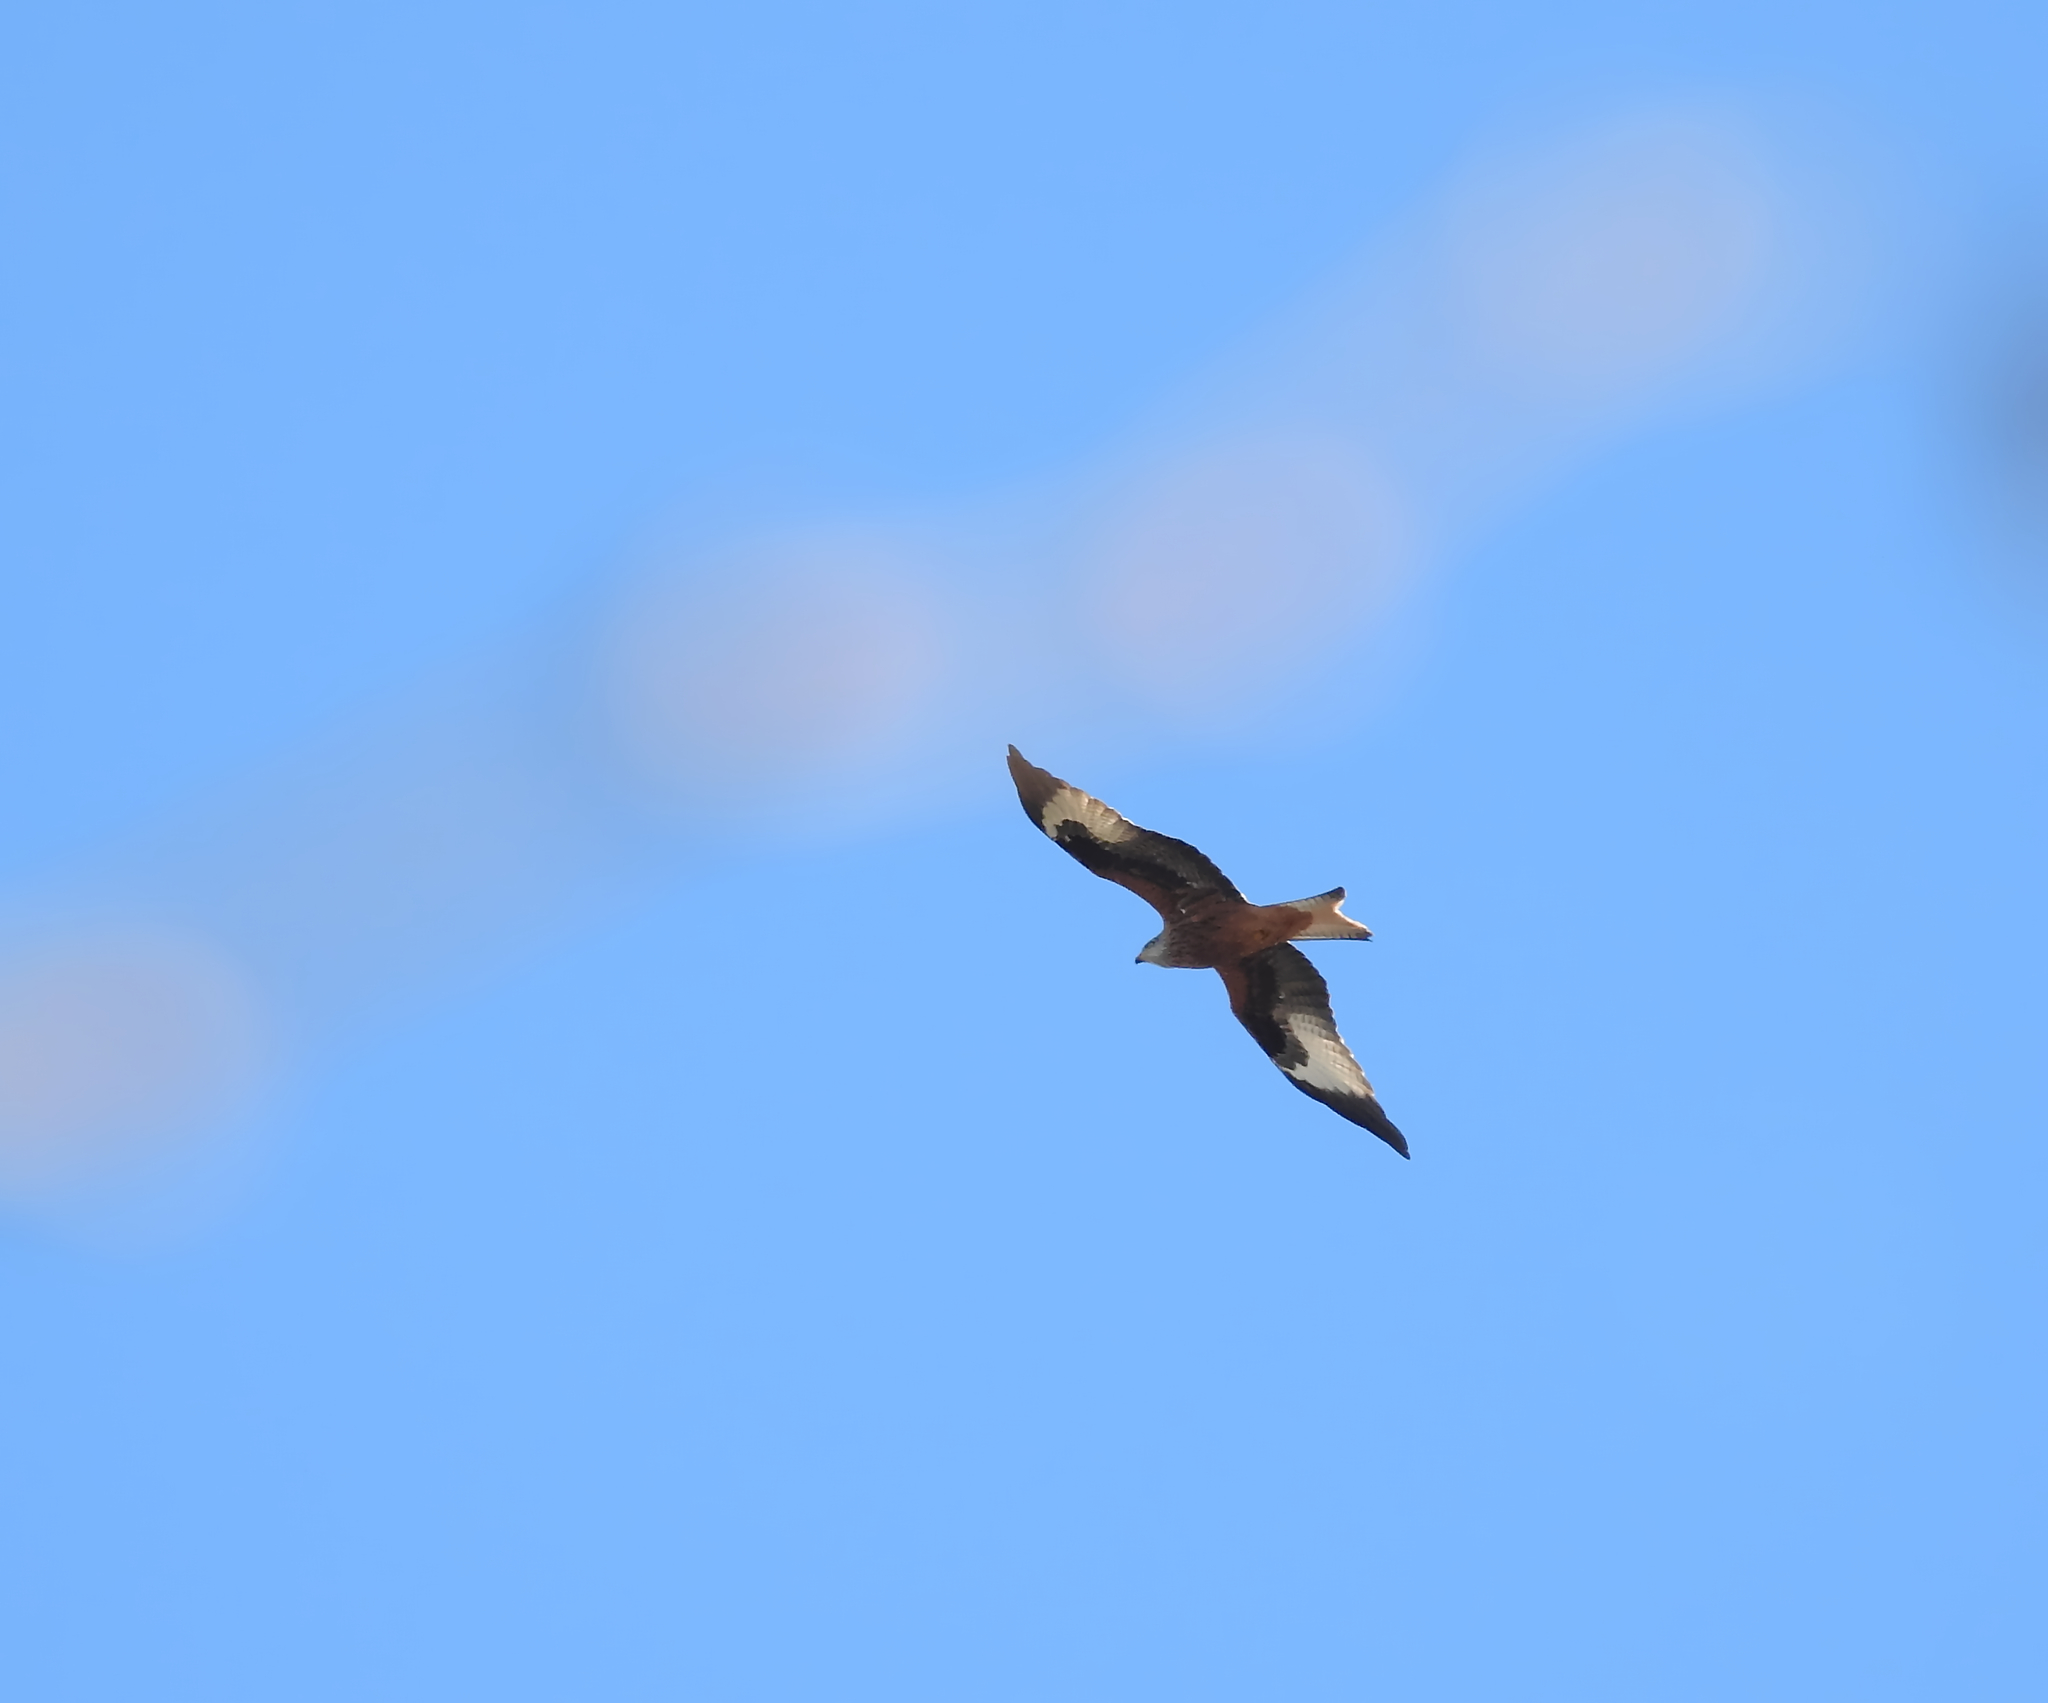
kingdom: Animalia
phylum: Chordata
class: Aves
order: Accipitriformes
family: Accipitridae
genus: Milvus
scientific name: Milvus milvus
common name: Red kite
